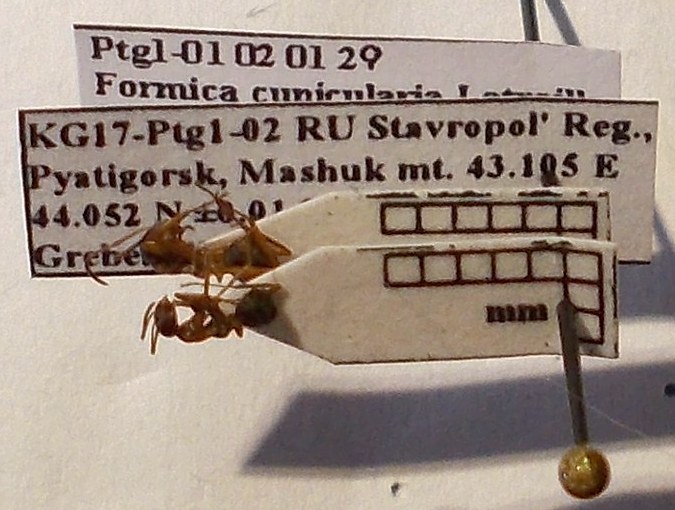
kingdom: Animalia
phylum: Arthropoda
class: Insecta
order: Hymenoptera
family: Formicidae
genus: Formica
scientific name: Formica cunicularia
